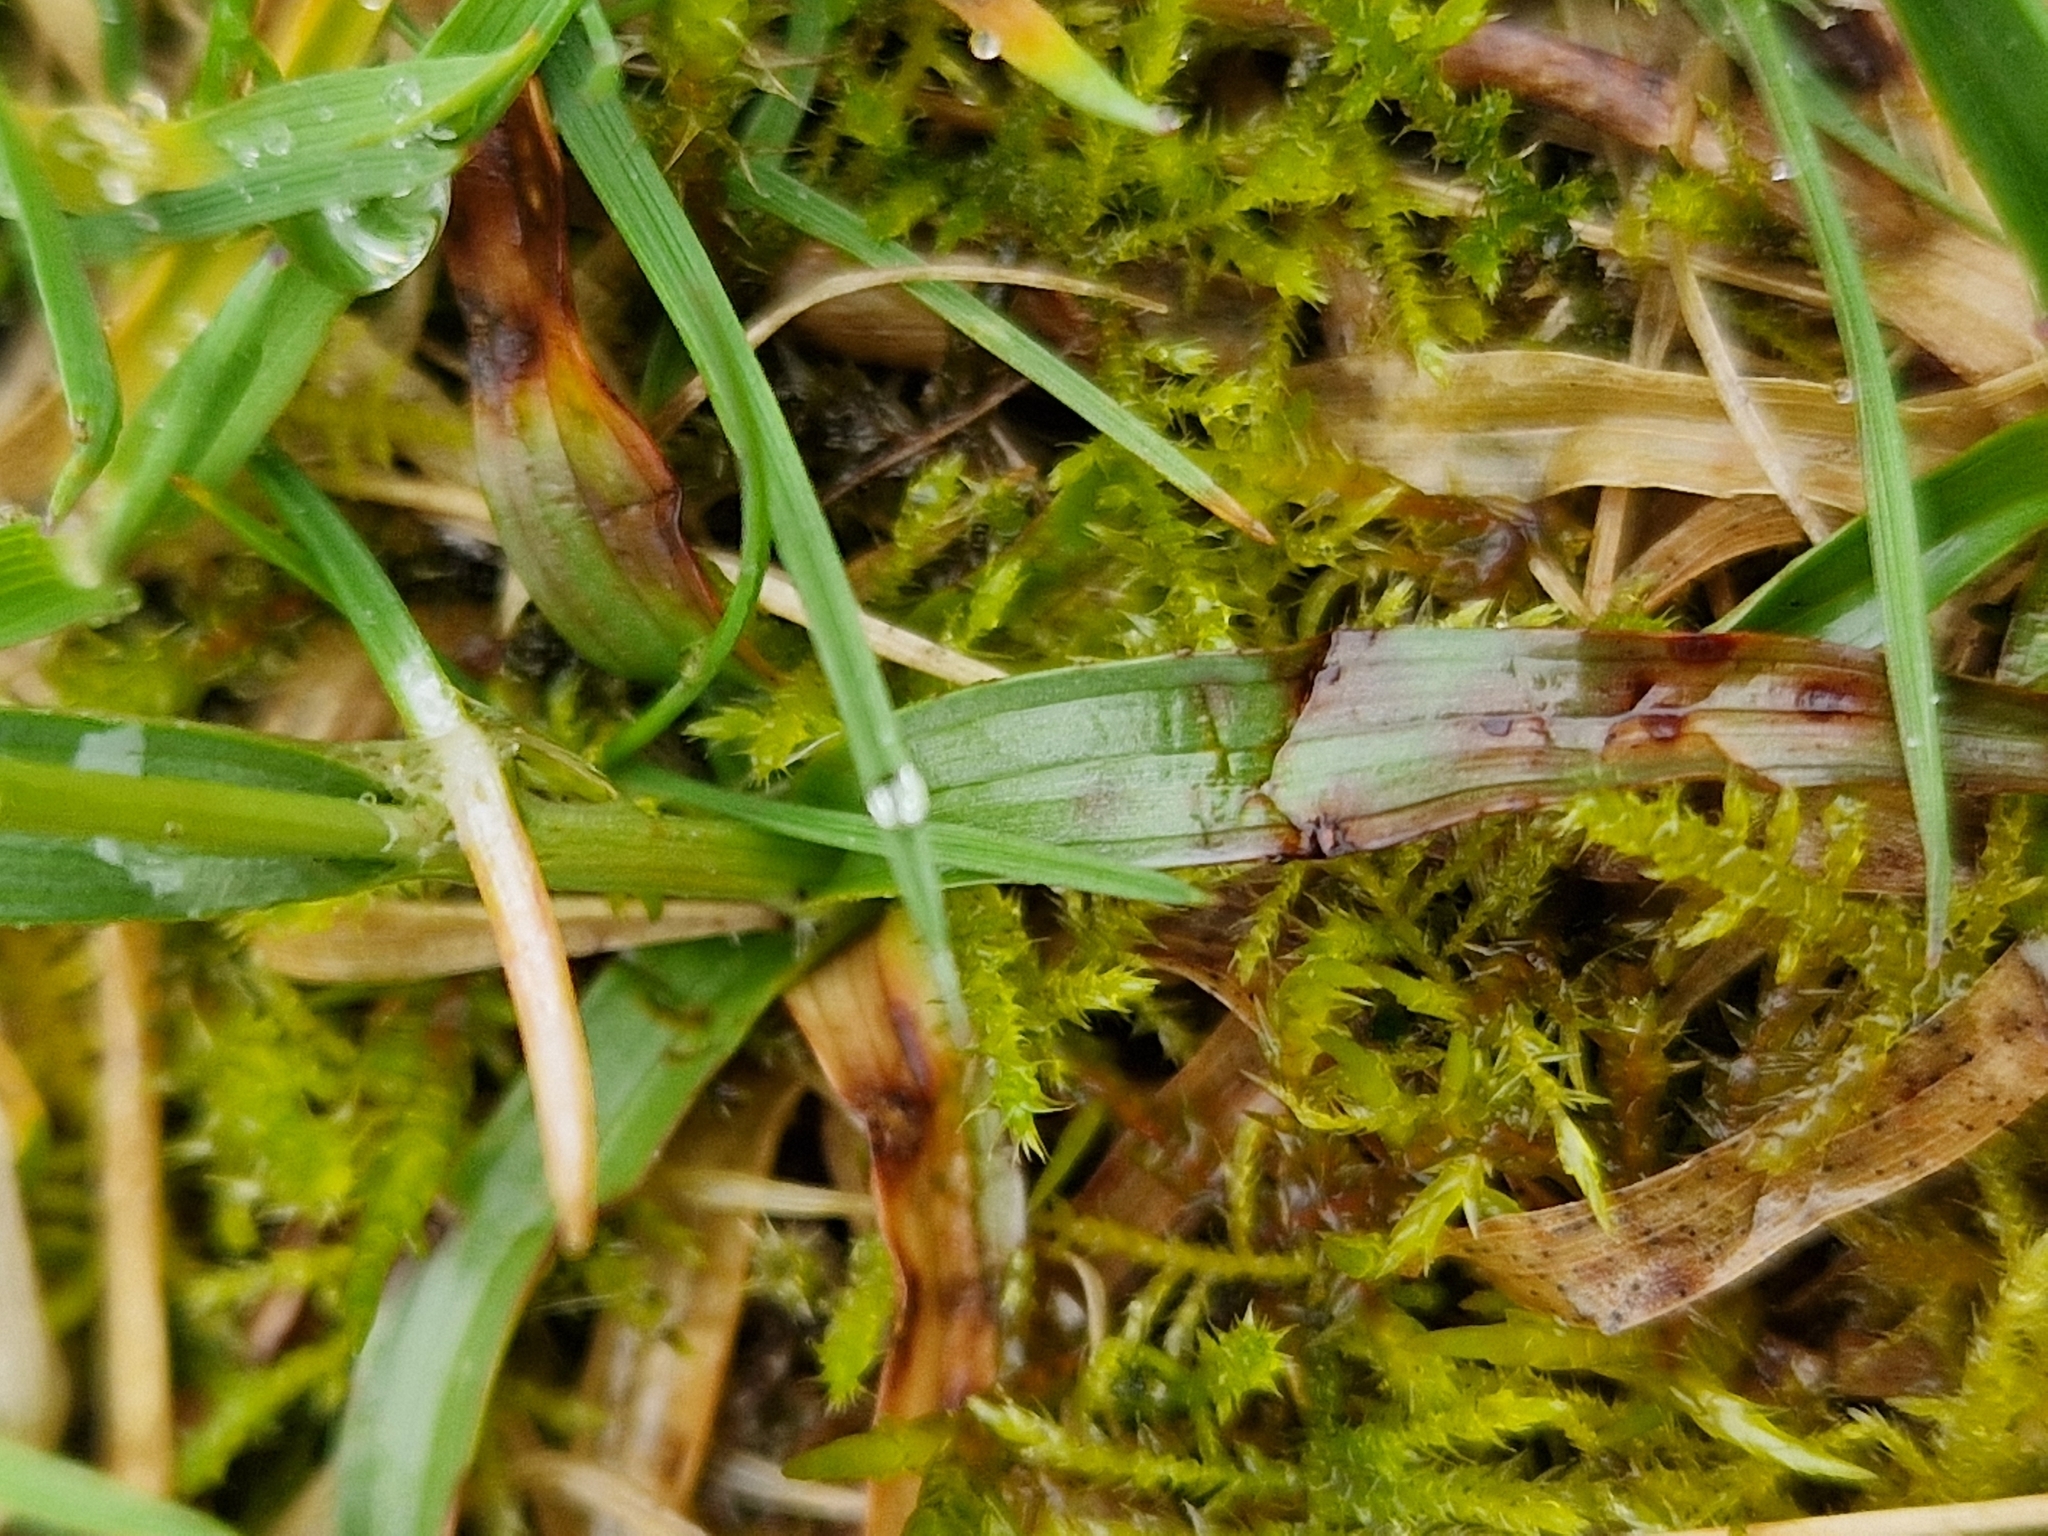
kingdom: Plantae
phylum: Tracheophyta
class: Liliopsida
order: Poales
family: Juncaceae
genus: Luzula
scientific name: Luzula campestris
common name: Field wood-rush
